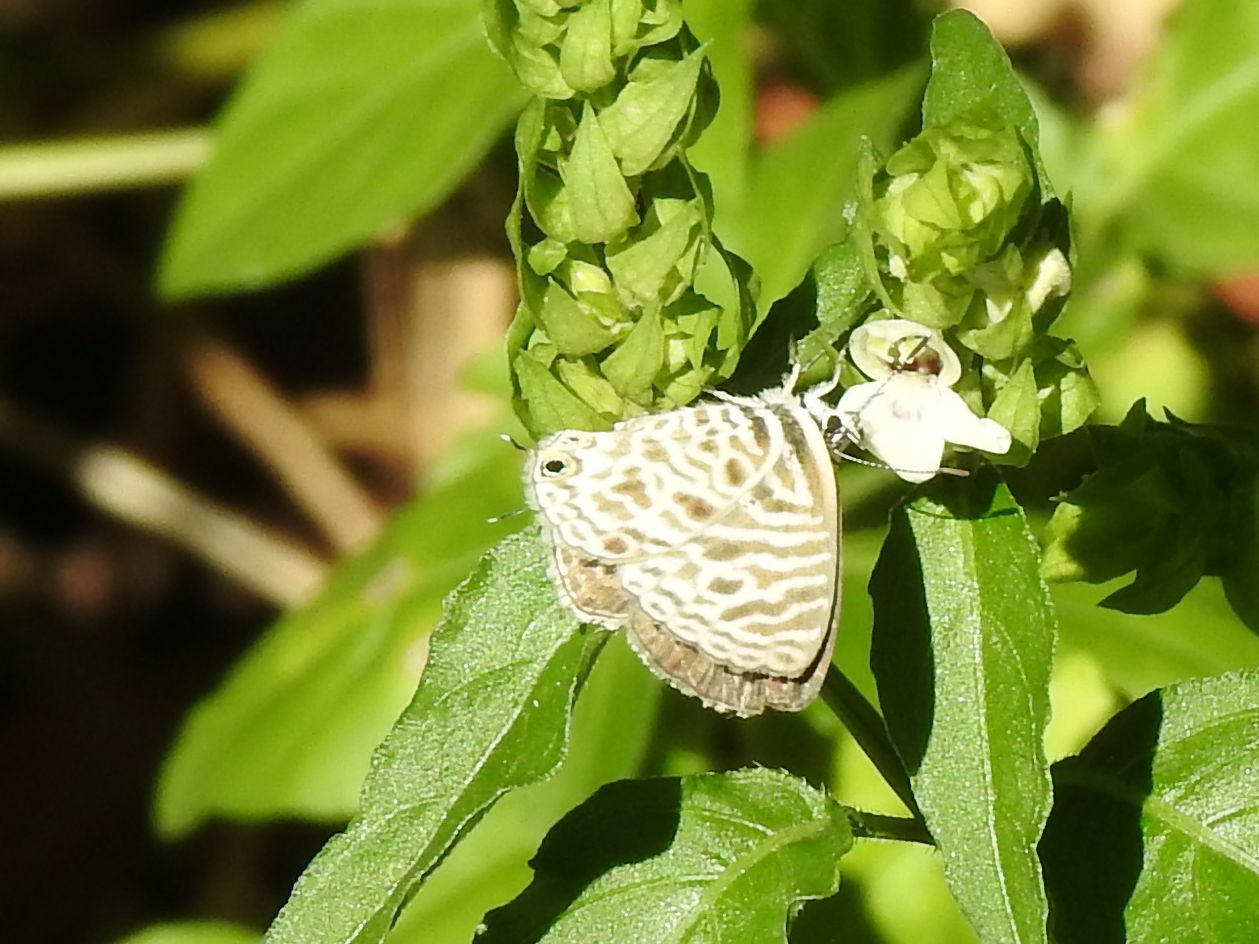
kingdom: Animalia
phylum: Arthropoda
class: Insecta
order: Lepidoptera
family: Lycaenidae
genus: Leptotes
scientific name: Leptotes
